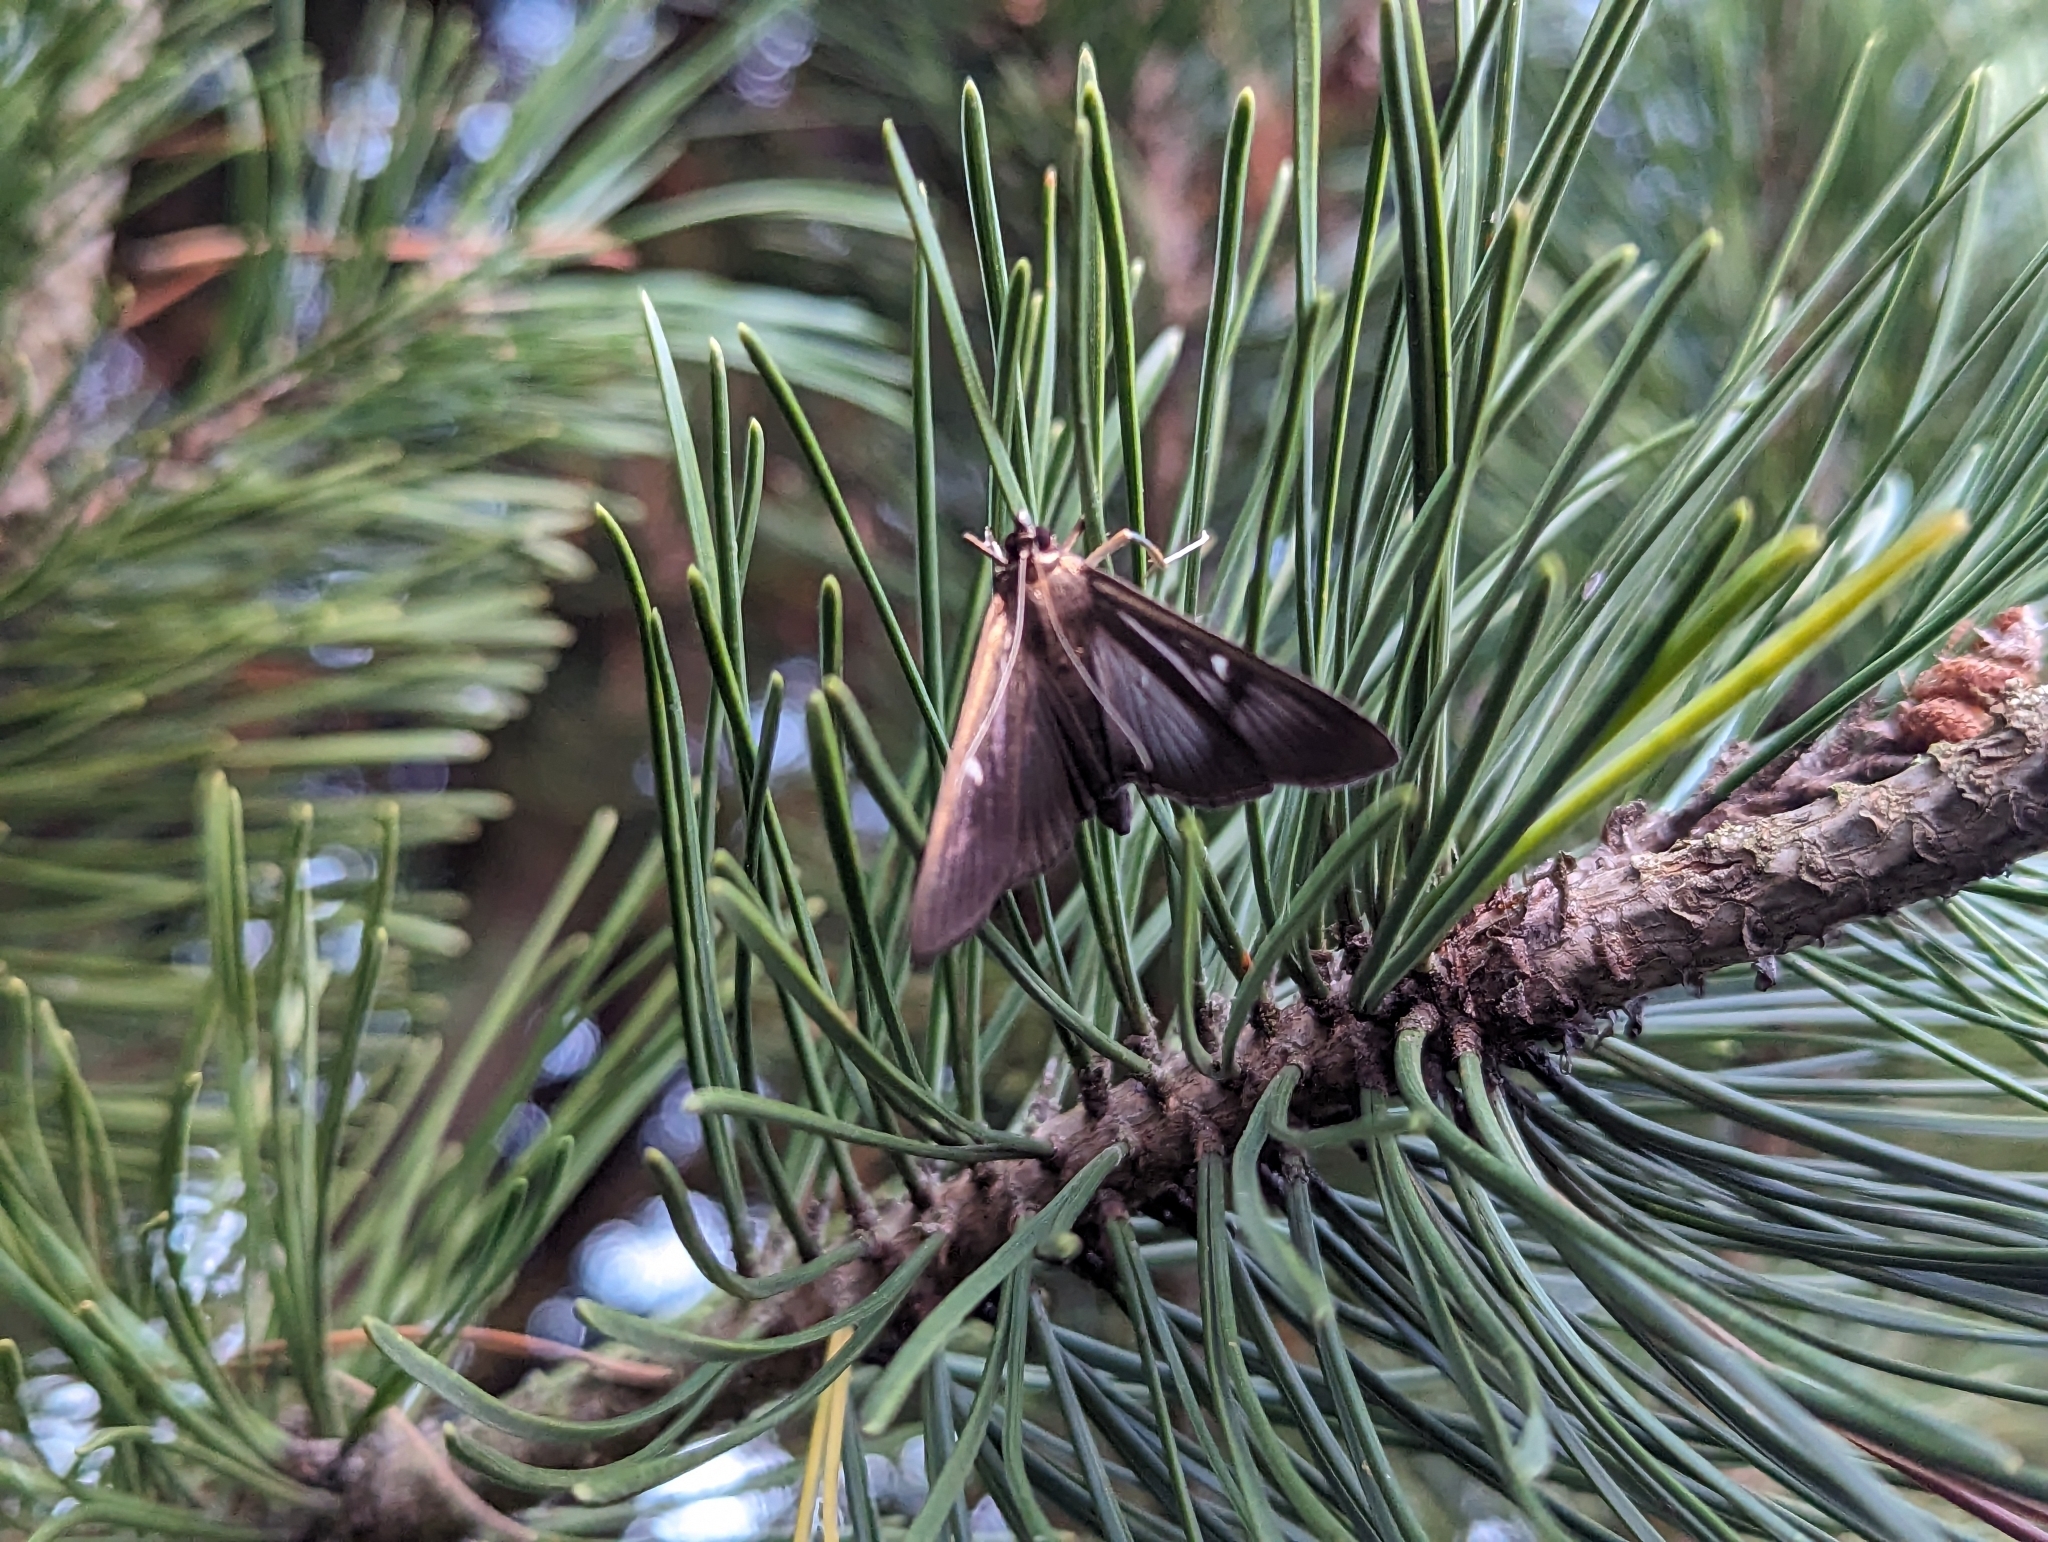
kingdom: Animalia
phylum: Arthropoda
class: Insecta
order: Lepidoptera
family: Crambidae
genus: Cydalima
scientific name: Cydalima perspectalis
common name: Box tree moth
